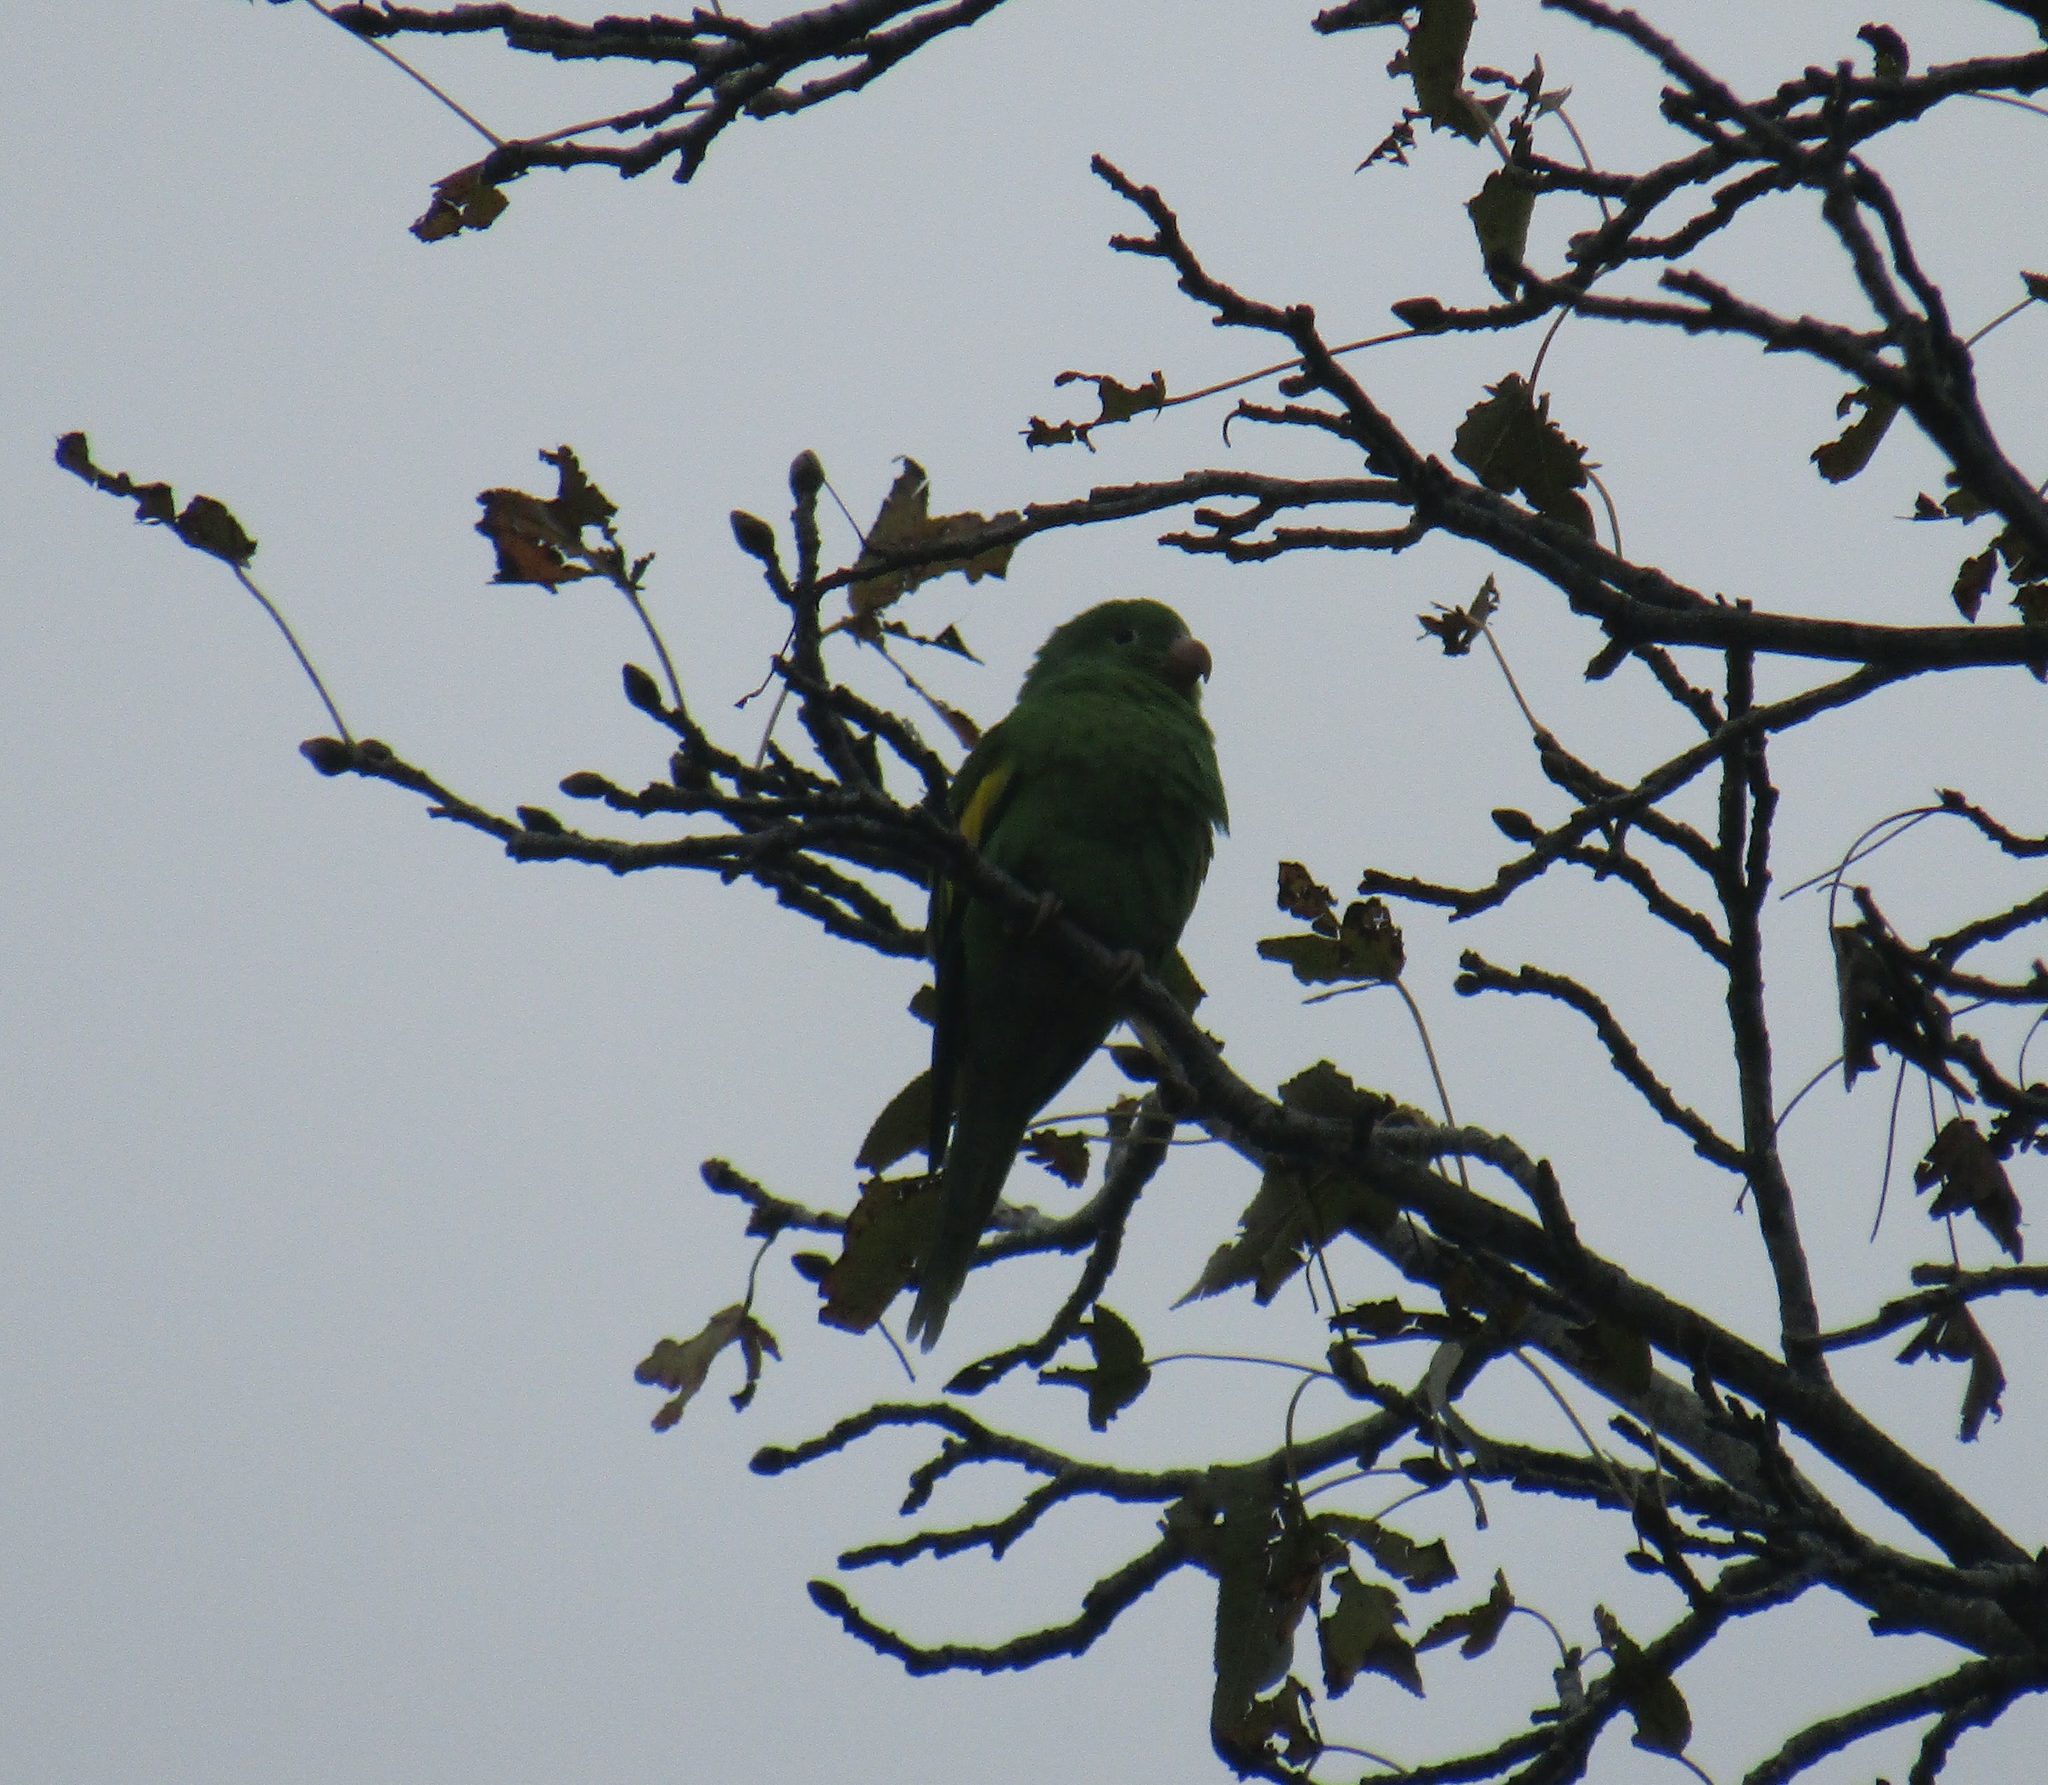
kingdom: Animalia
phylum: Chordata
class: Aves
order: Psittaciformes
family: Psittacidae
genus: Brotogeris
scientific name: Brotogeris chiriri
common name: Yellow-chevroned parakeet
